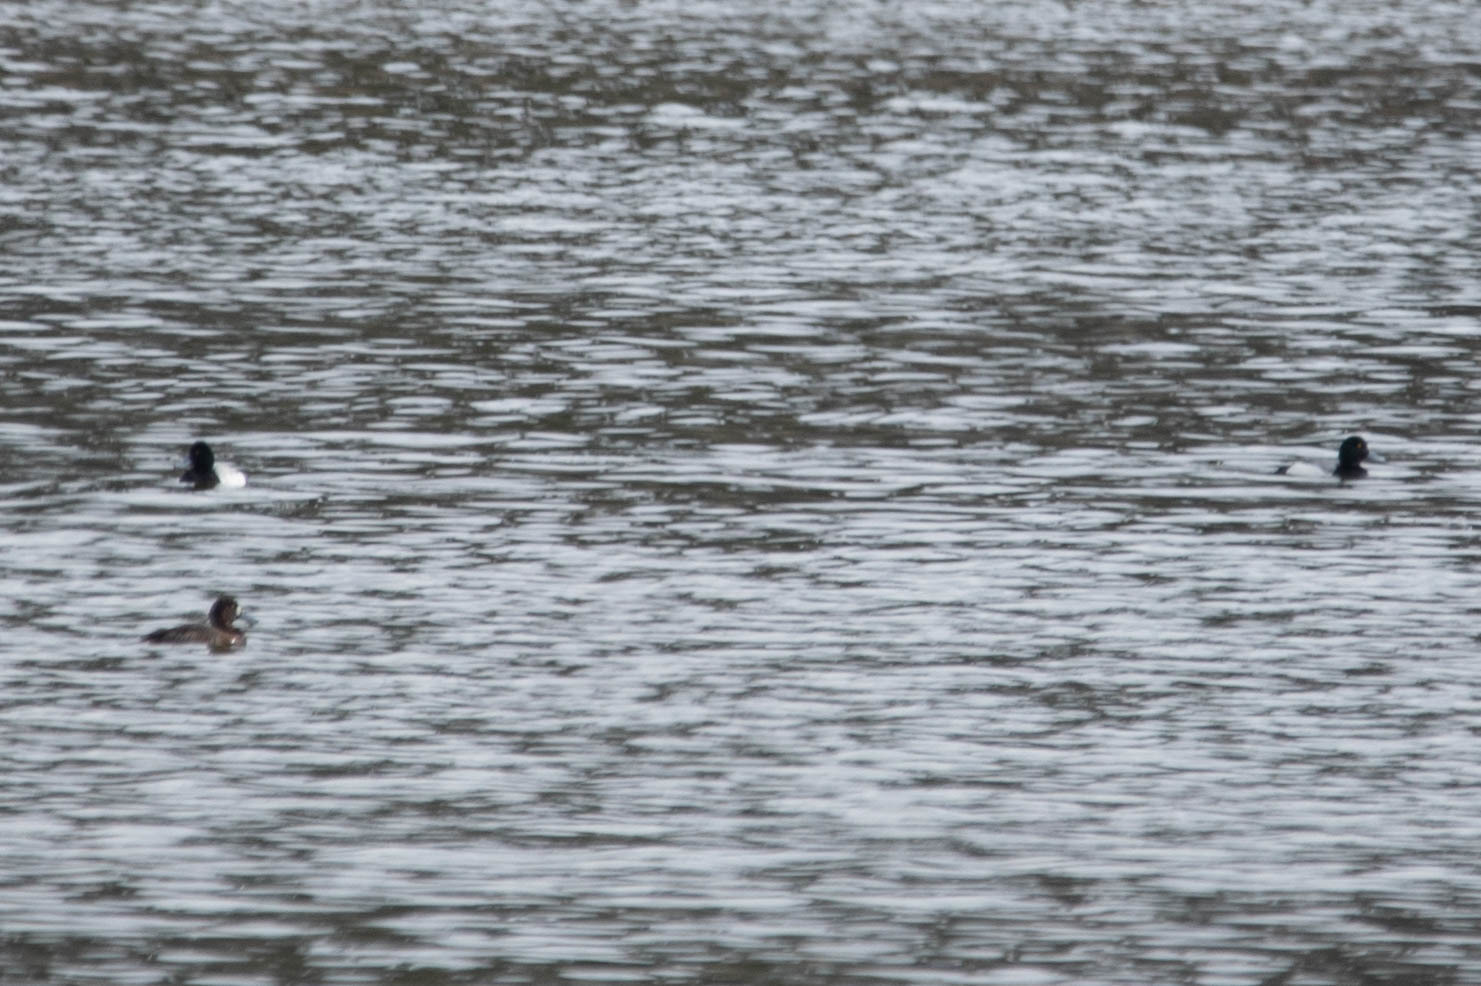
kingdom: Animalia
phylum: Chordata
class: Aves
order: Anseriformes
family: Anatidae
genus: Aythya
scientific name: Aythya marila
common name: Greater scaup
